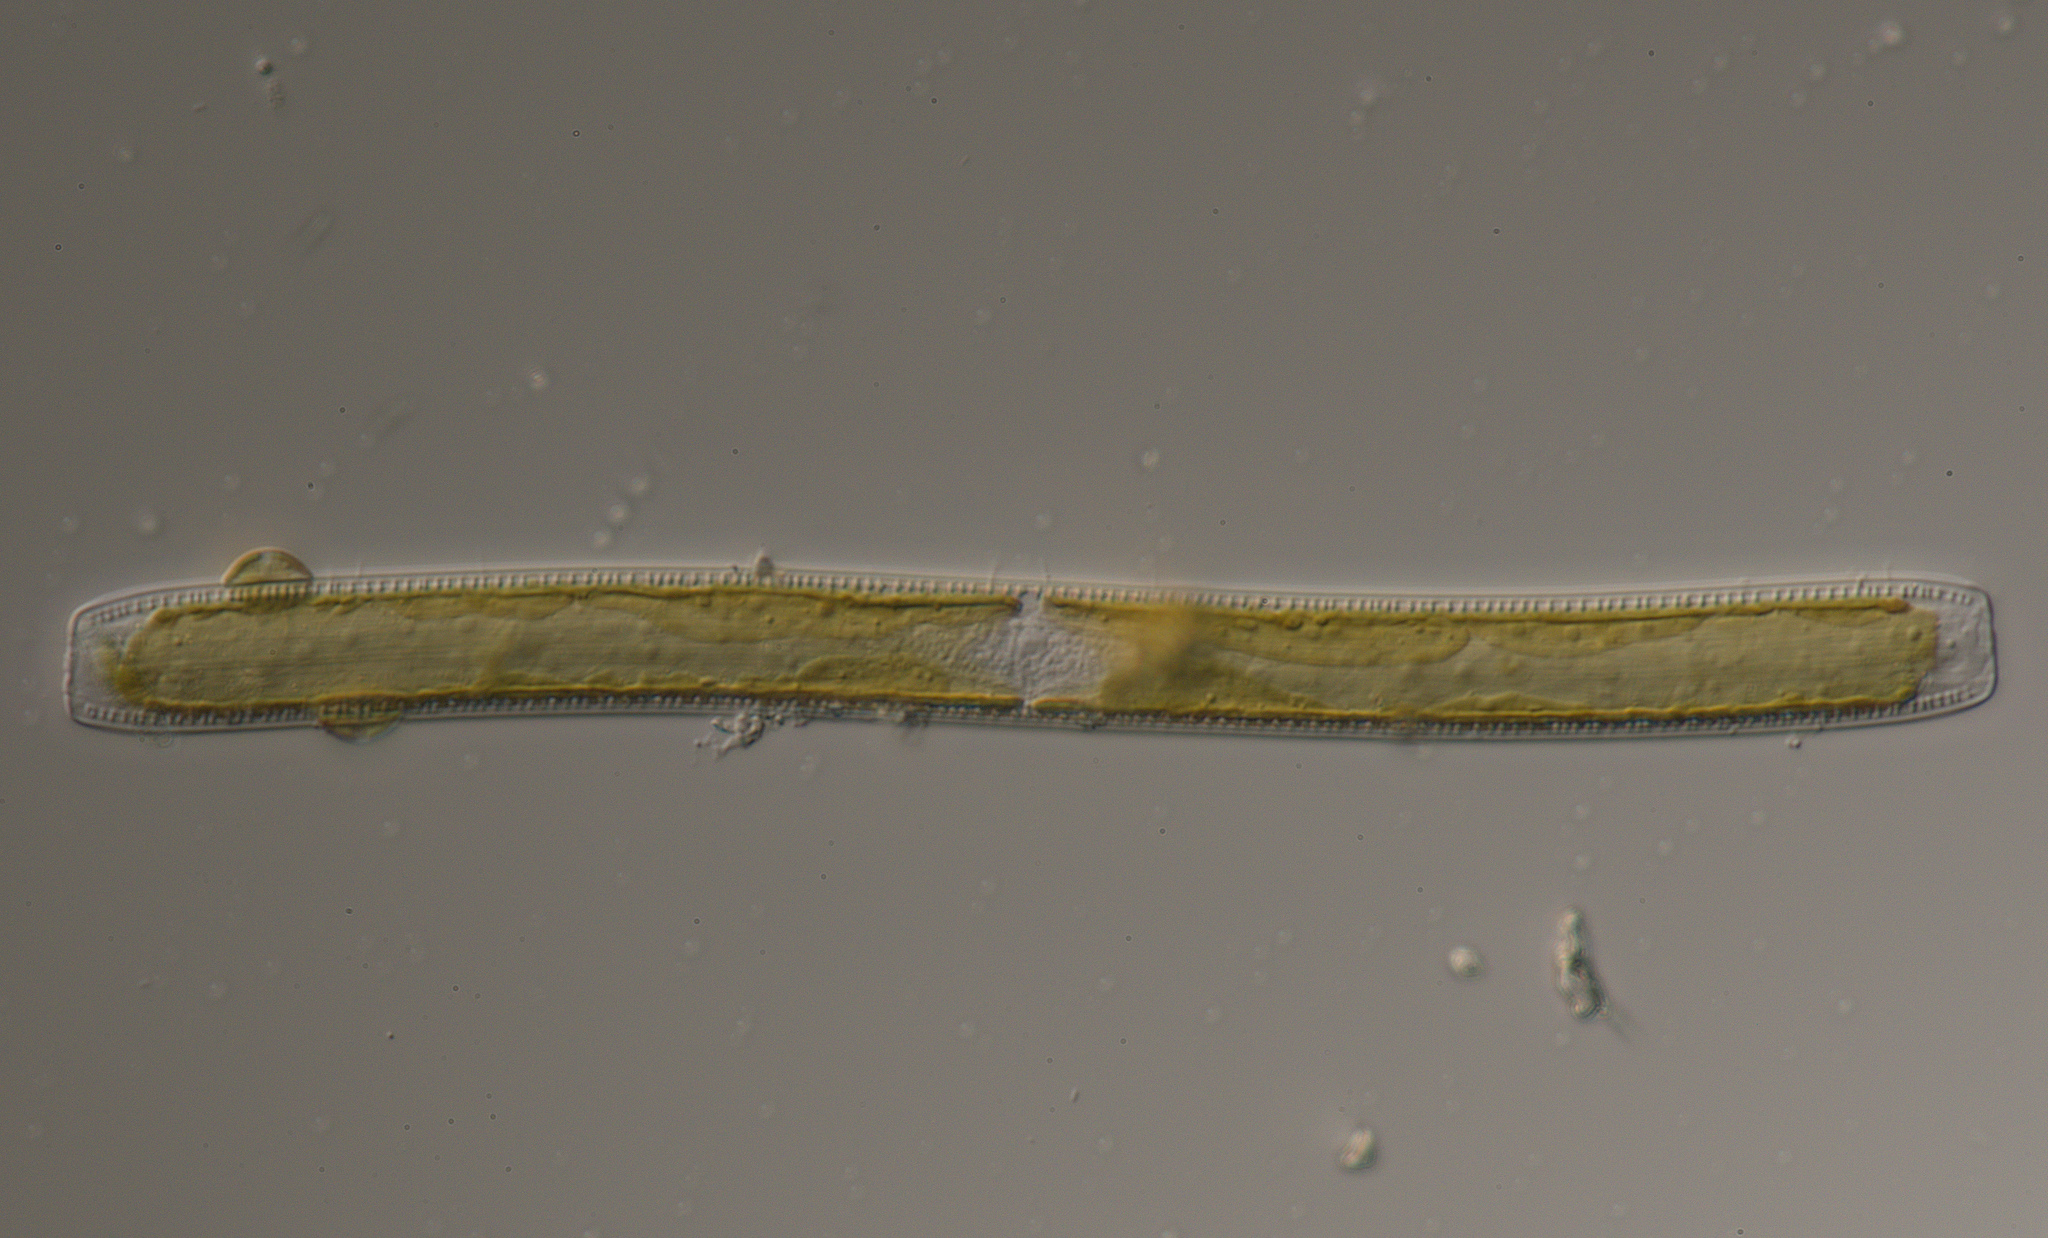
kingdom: Chromista
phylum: Ochrophyta
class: Bacillariophyceae
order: Bacillariales
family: Bacillariaceae
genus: Nitzschia
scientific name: Nitzschia sigmoidea
